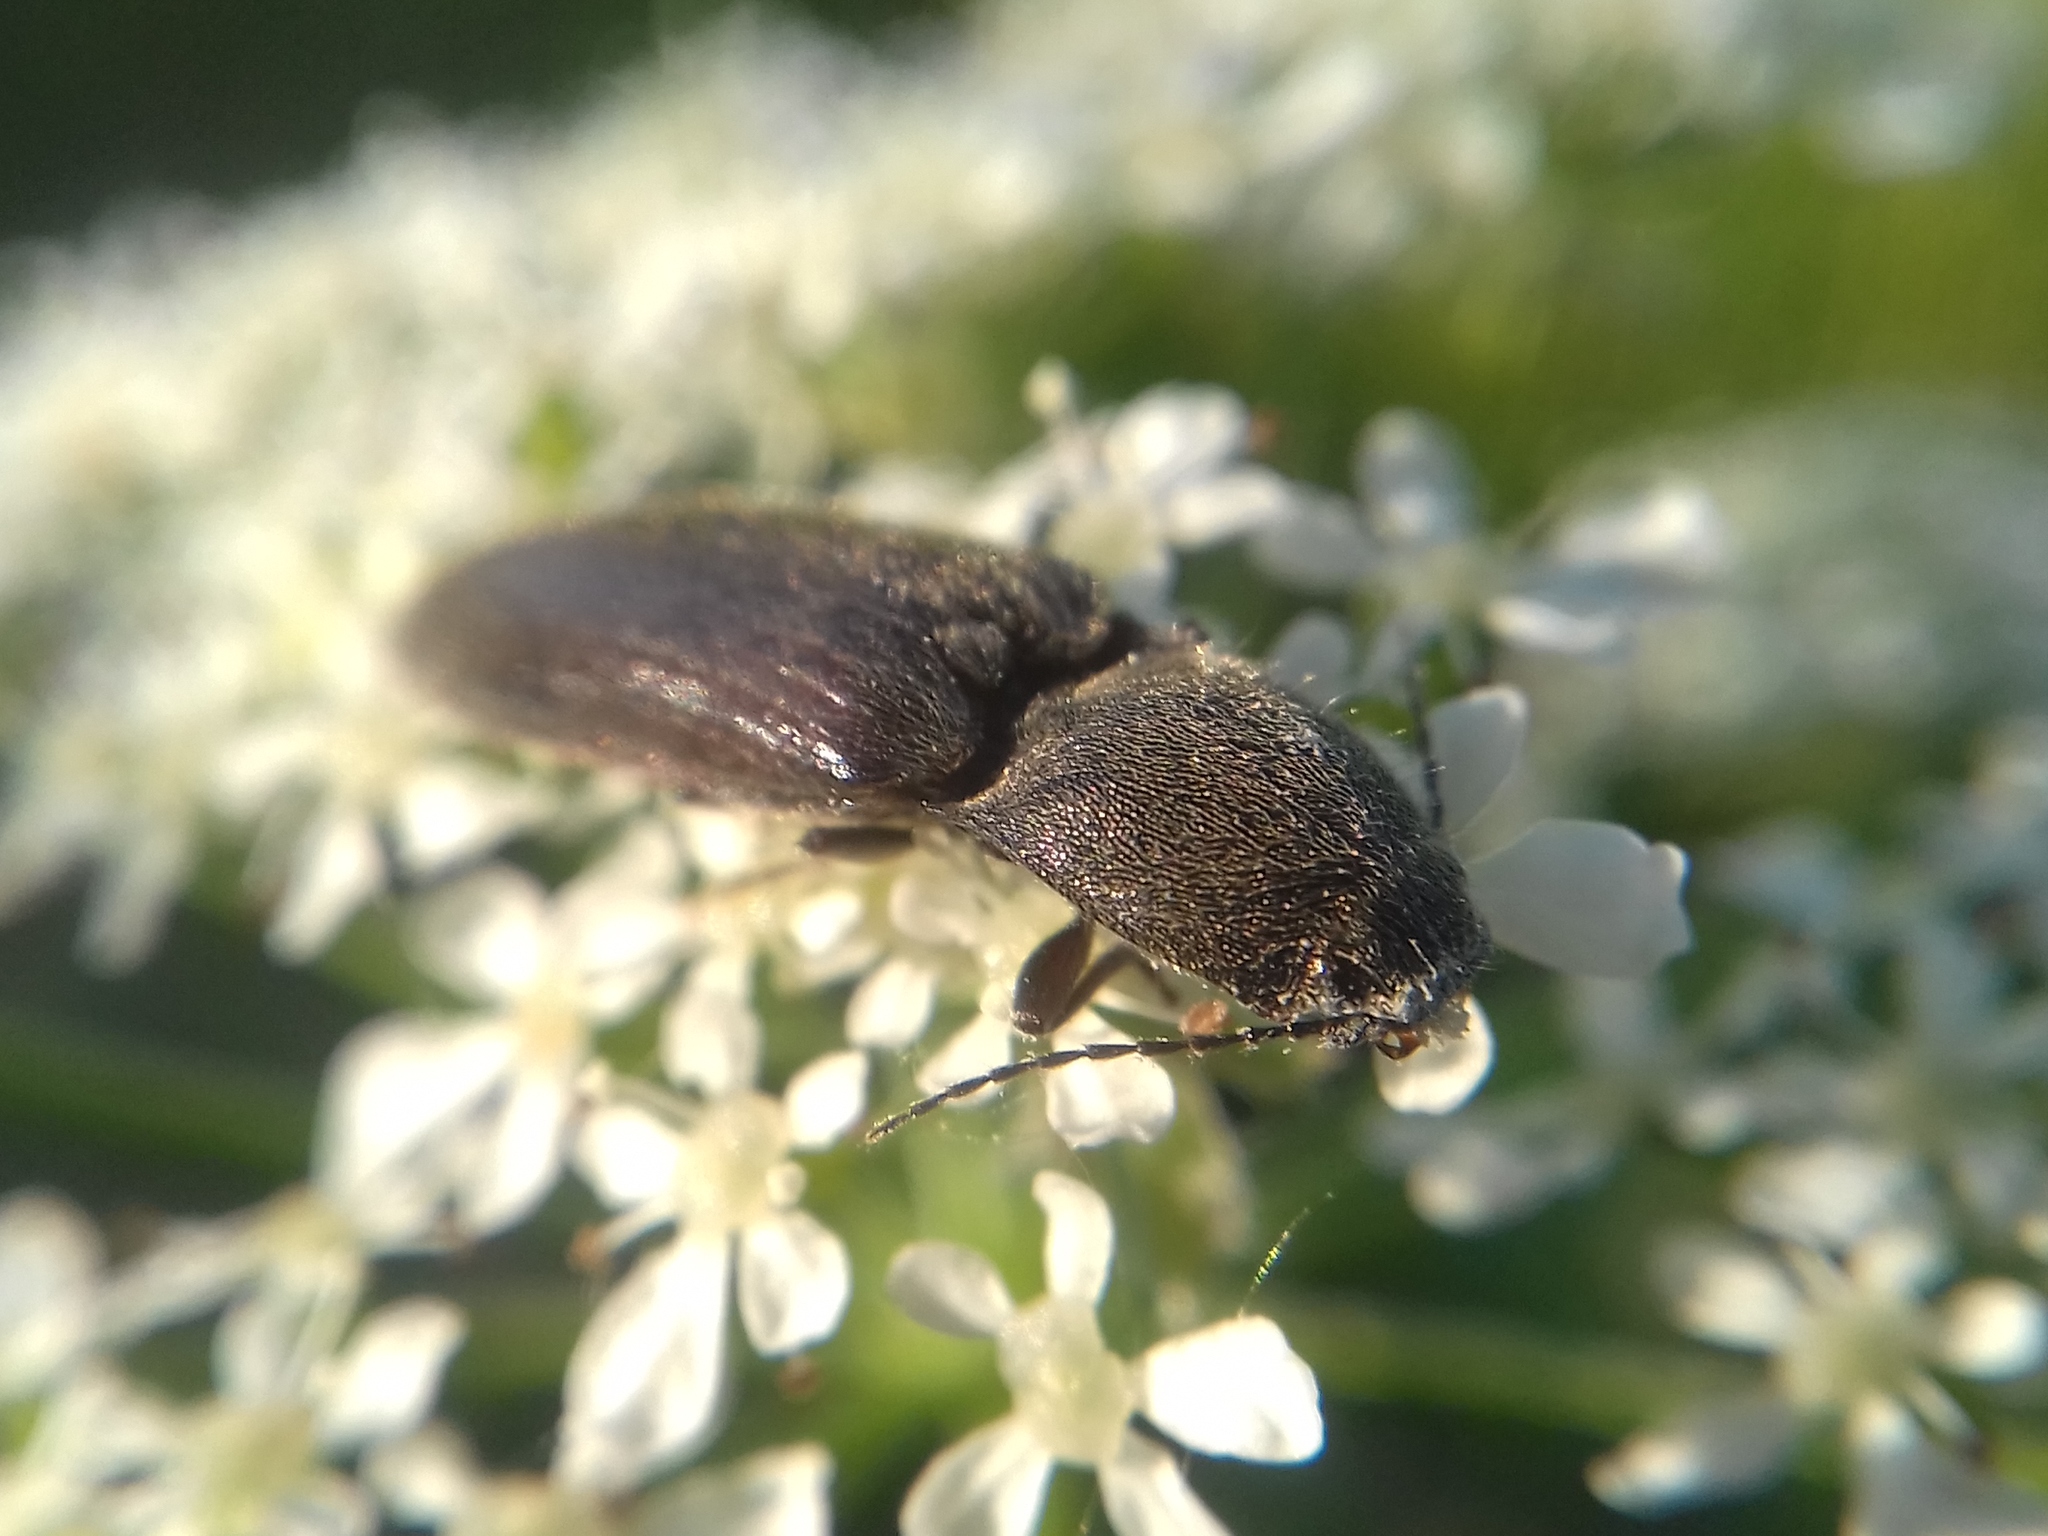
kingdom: Animalia
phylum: Arthropoda
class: Insecta
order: Coleoptera
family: Elateridae
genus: Athous
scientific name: Athous haemorrhoidalis
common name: Red-brown click beetle
